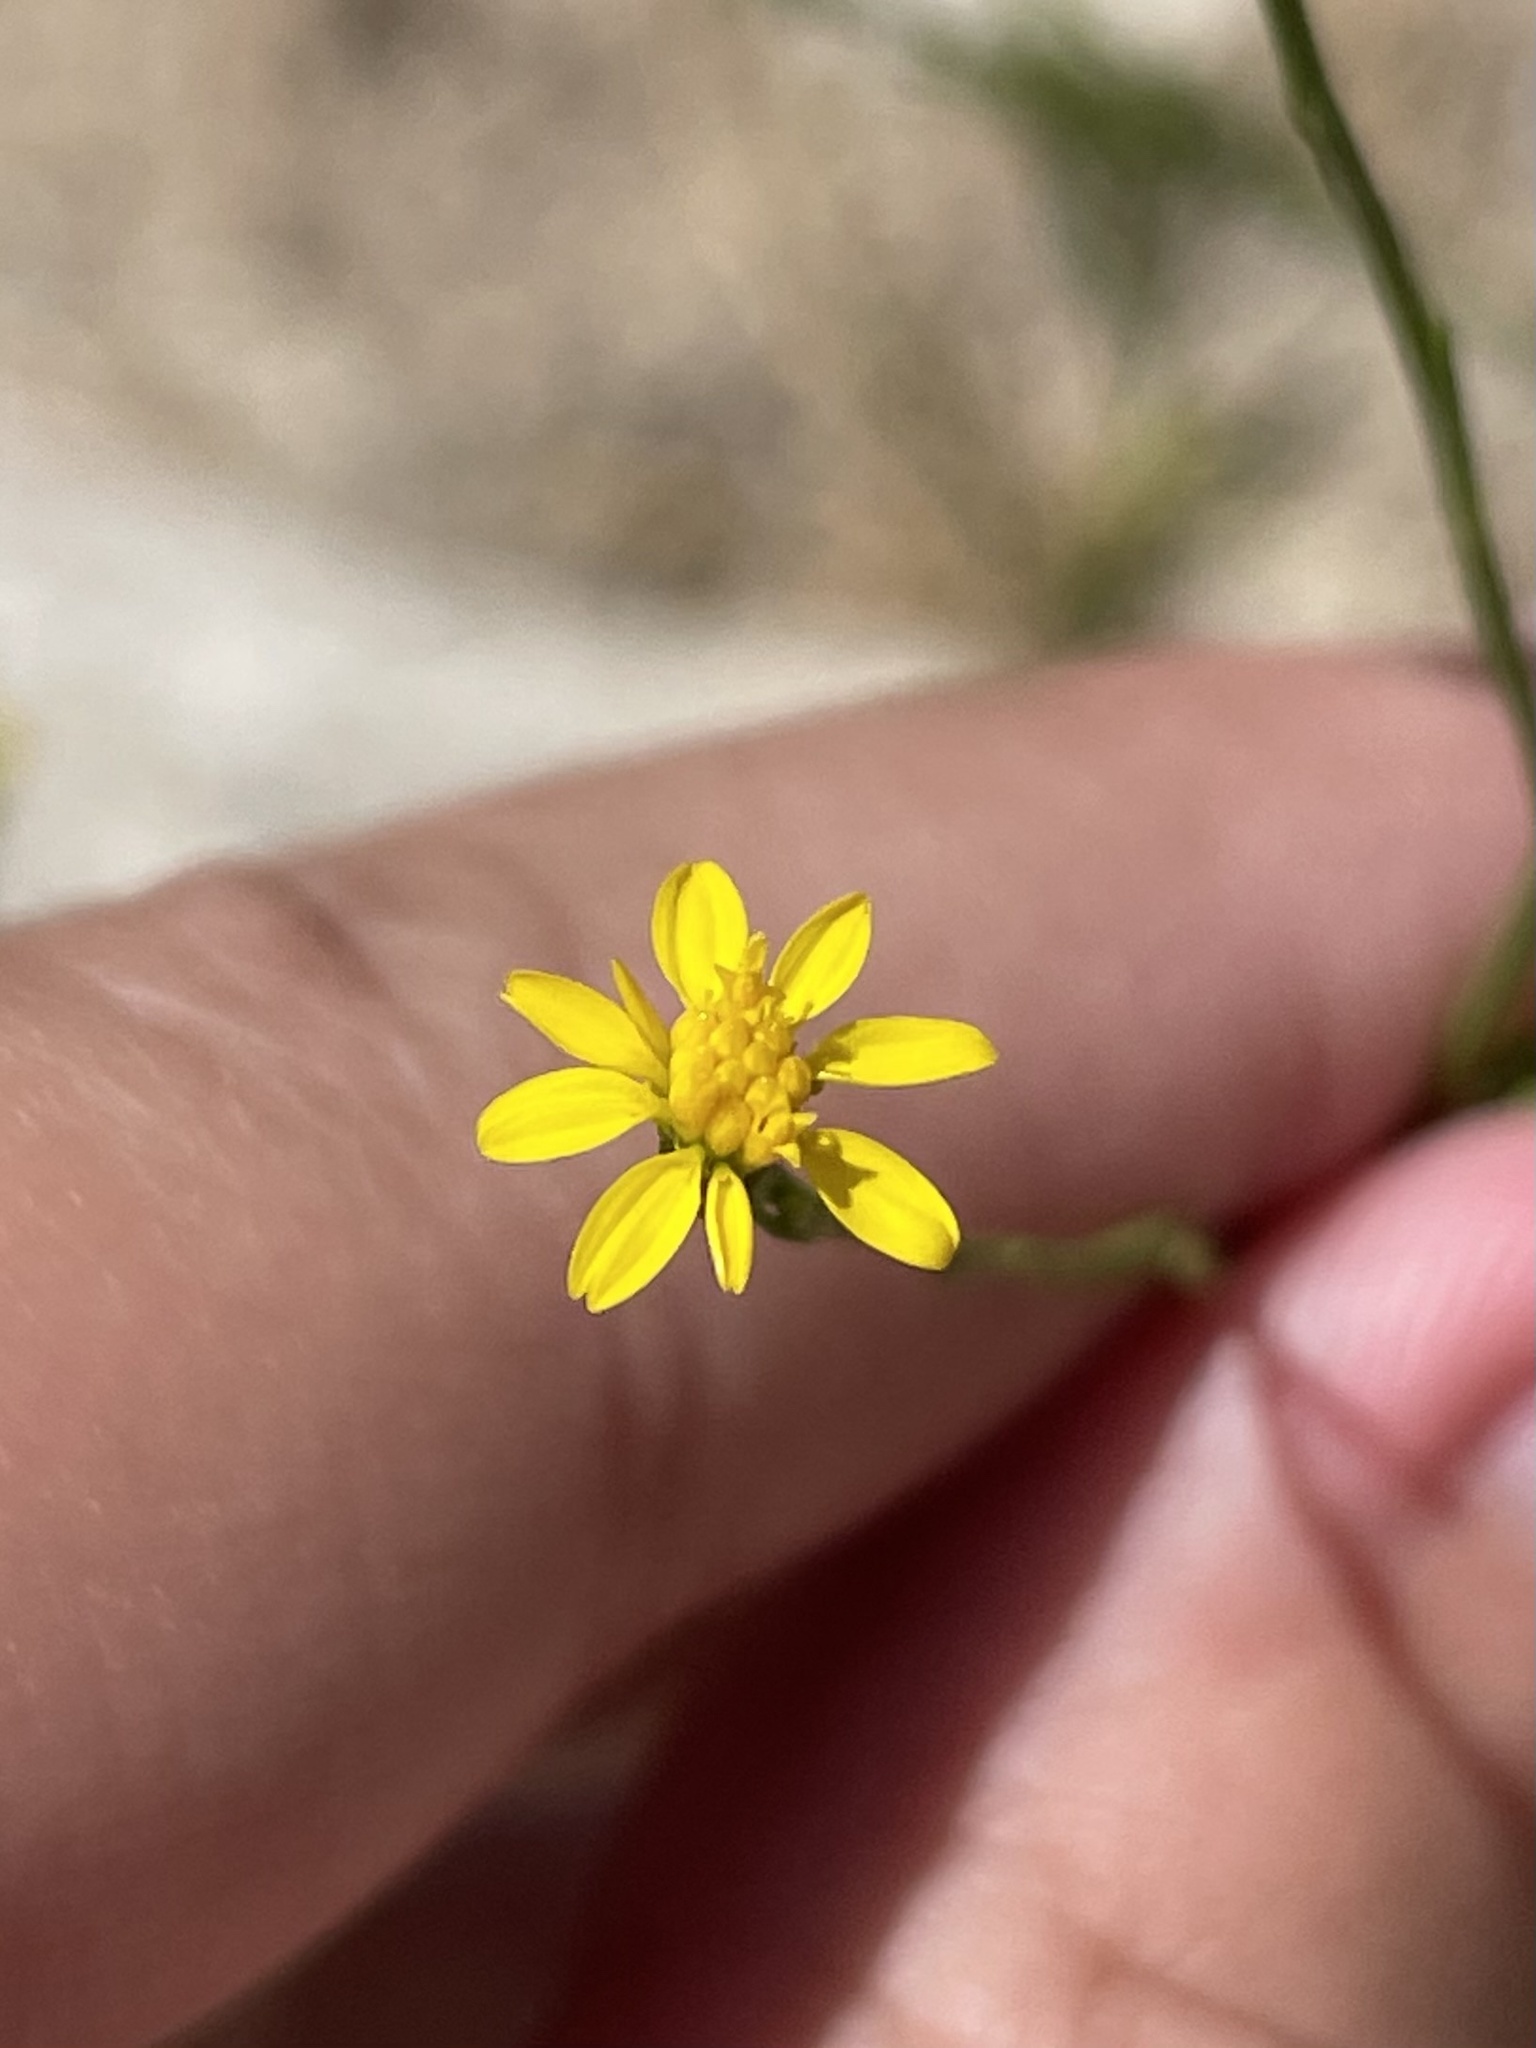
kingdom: Plantae
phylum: Tracheophyta
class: Magnoliopsida
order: Asterales
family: Asteraceae
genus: Gutierrezia
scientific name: Gutierrezia texana
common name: Texas snakeweed
